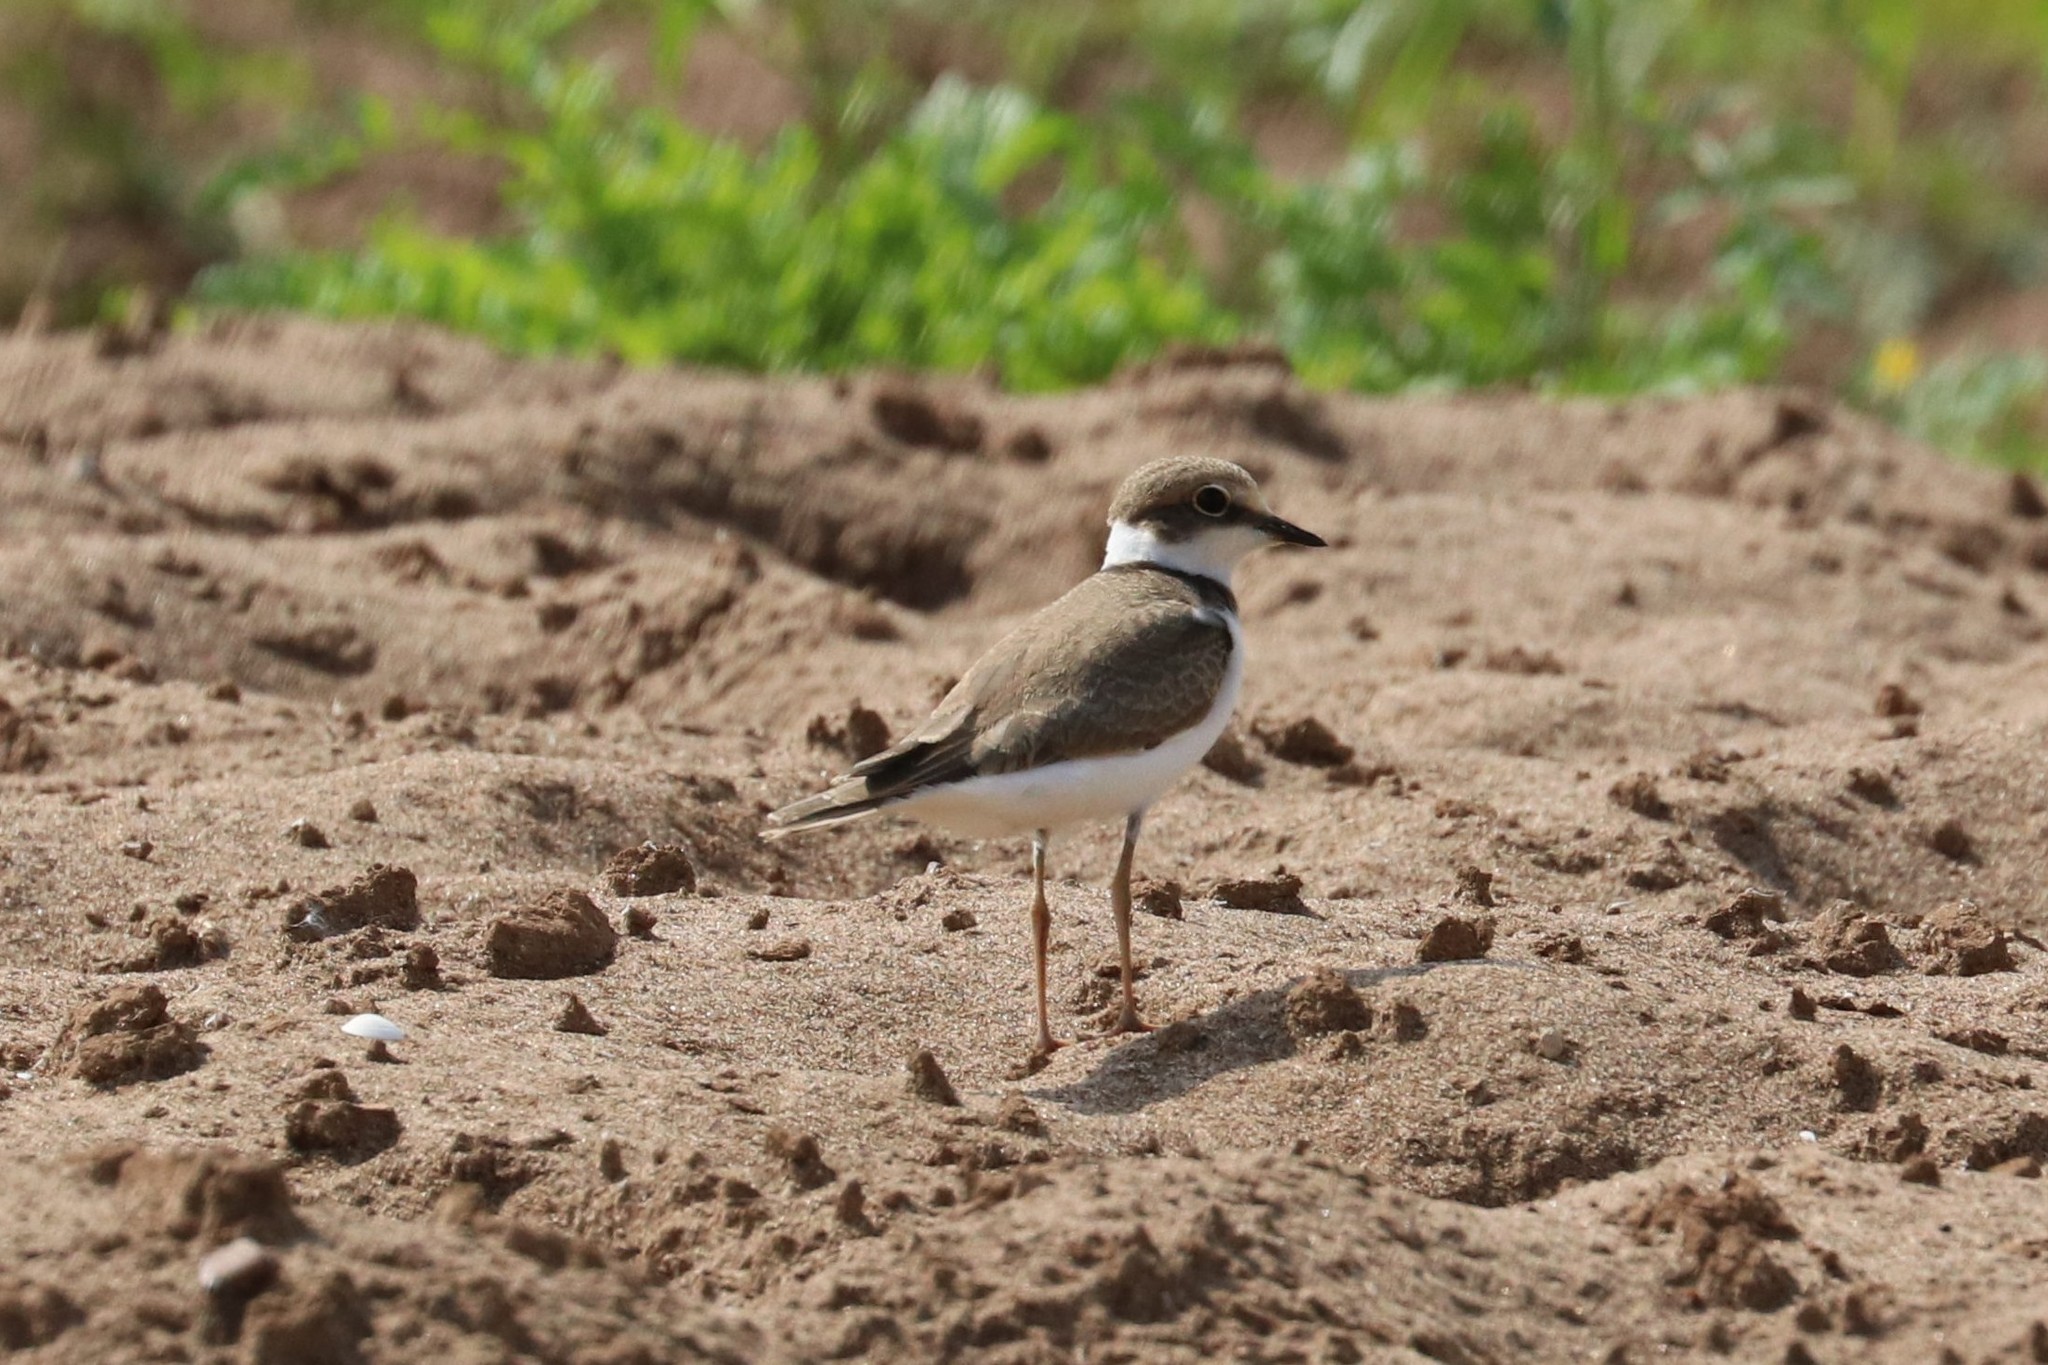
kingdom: Animalia
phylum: Chordata
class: Aves
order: Charadriiformes
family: Charadriidae
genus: Charadrius
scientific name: Charadrius dubius
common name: Little ringed plover
